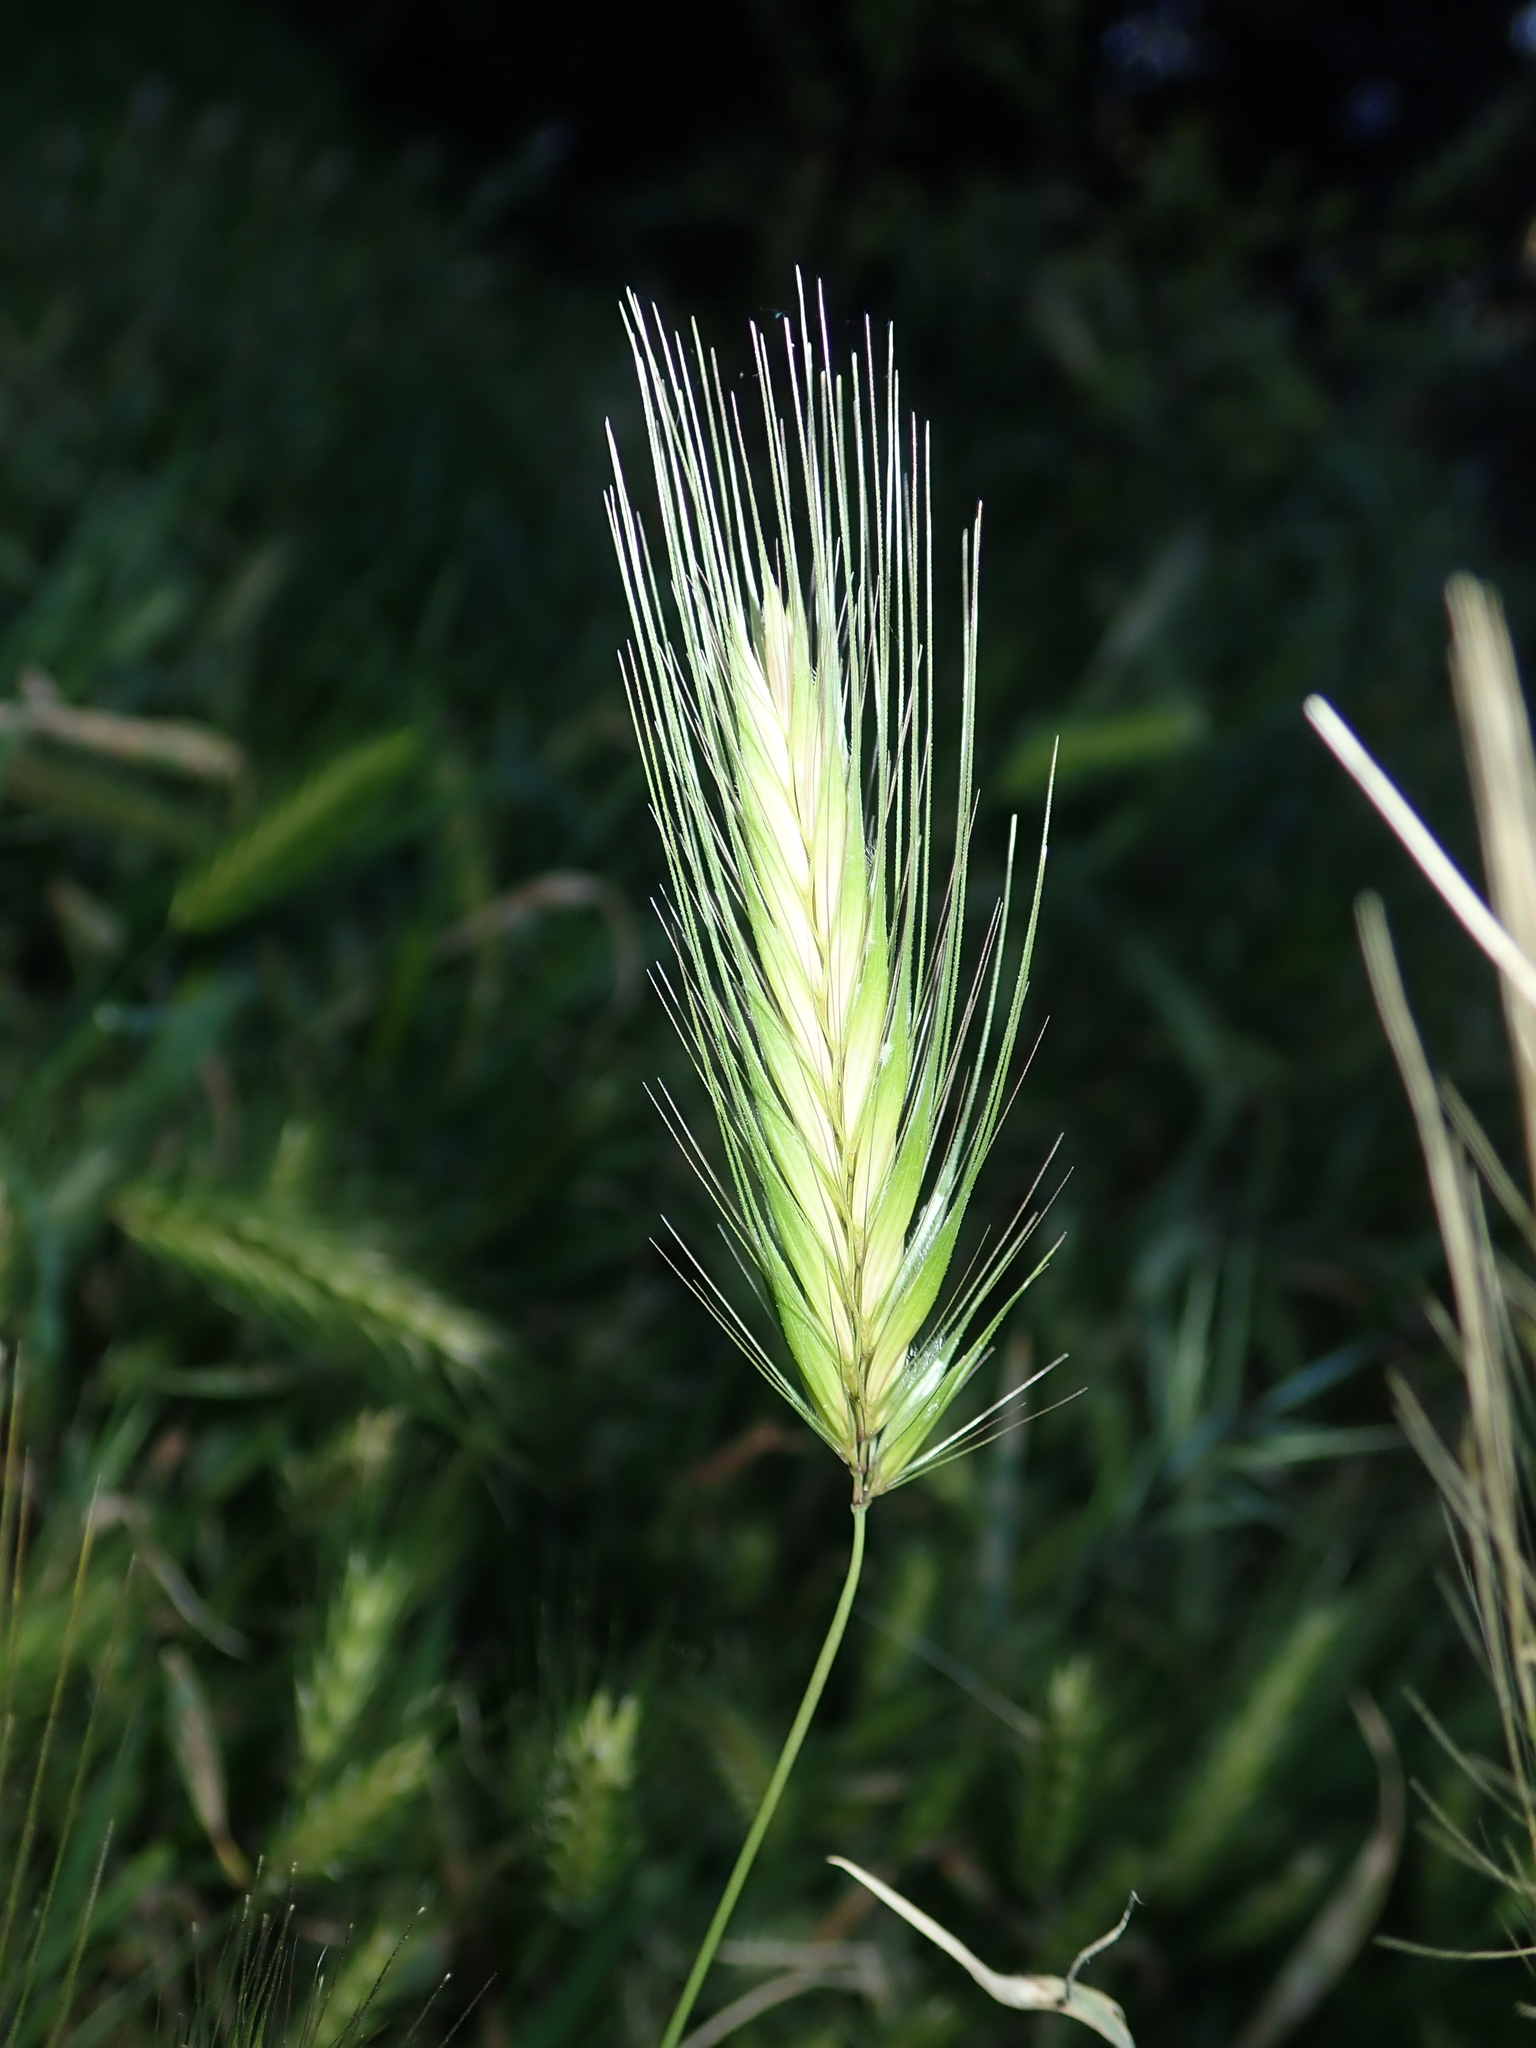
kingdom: Plantae
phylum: Tracheophyta
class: Liliopsida
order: Poales
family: Poaceae
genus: Hordeum
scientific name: Hordeum murinum
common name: Wall barley
